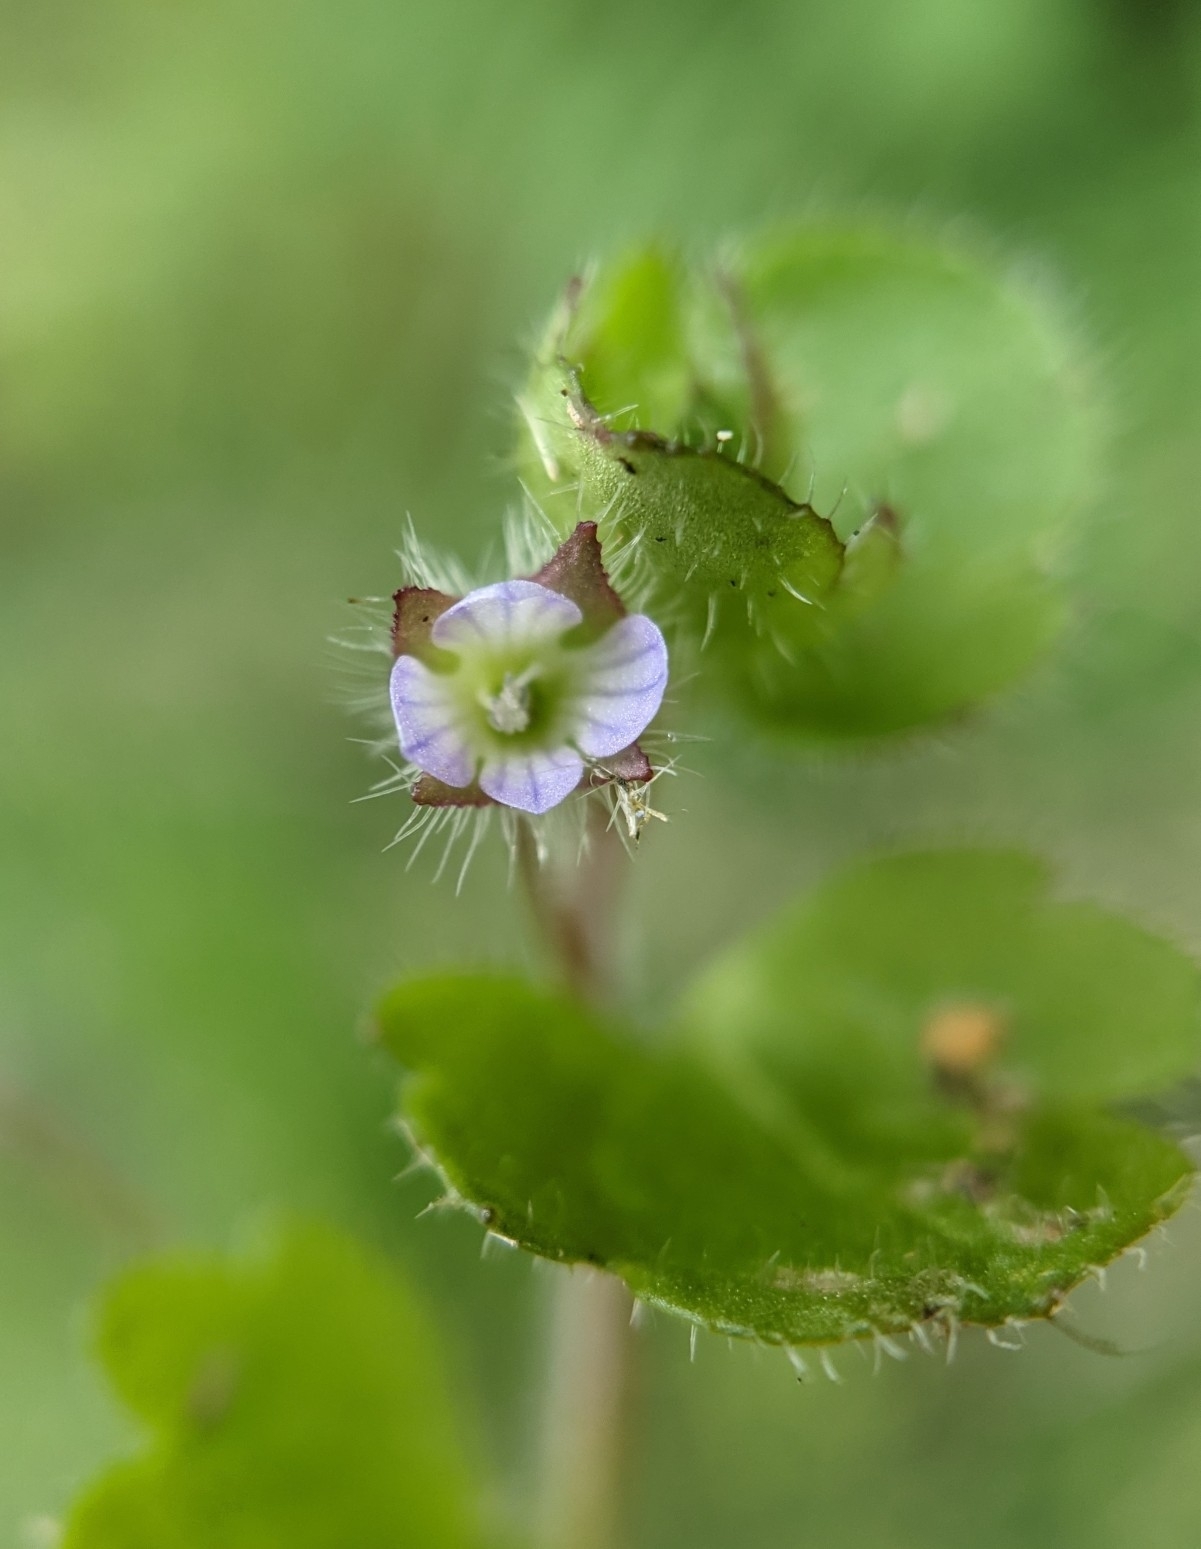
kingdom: Plantae
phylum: Tracheophyta
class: Magnoliopsida
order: Lamiales
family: Plantaginaceae
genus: Veronica
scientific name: Veronica sublobata
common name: False ivy-leaved speedwell
